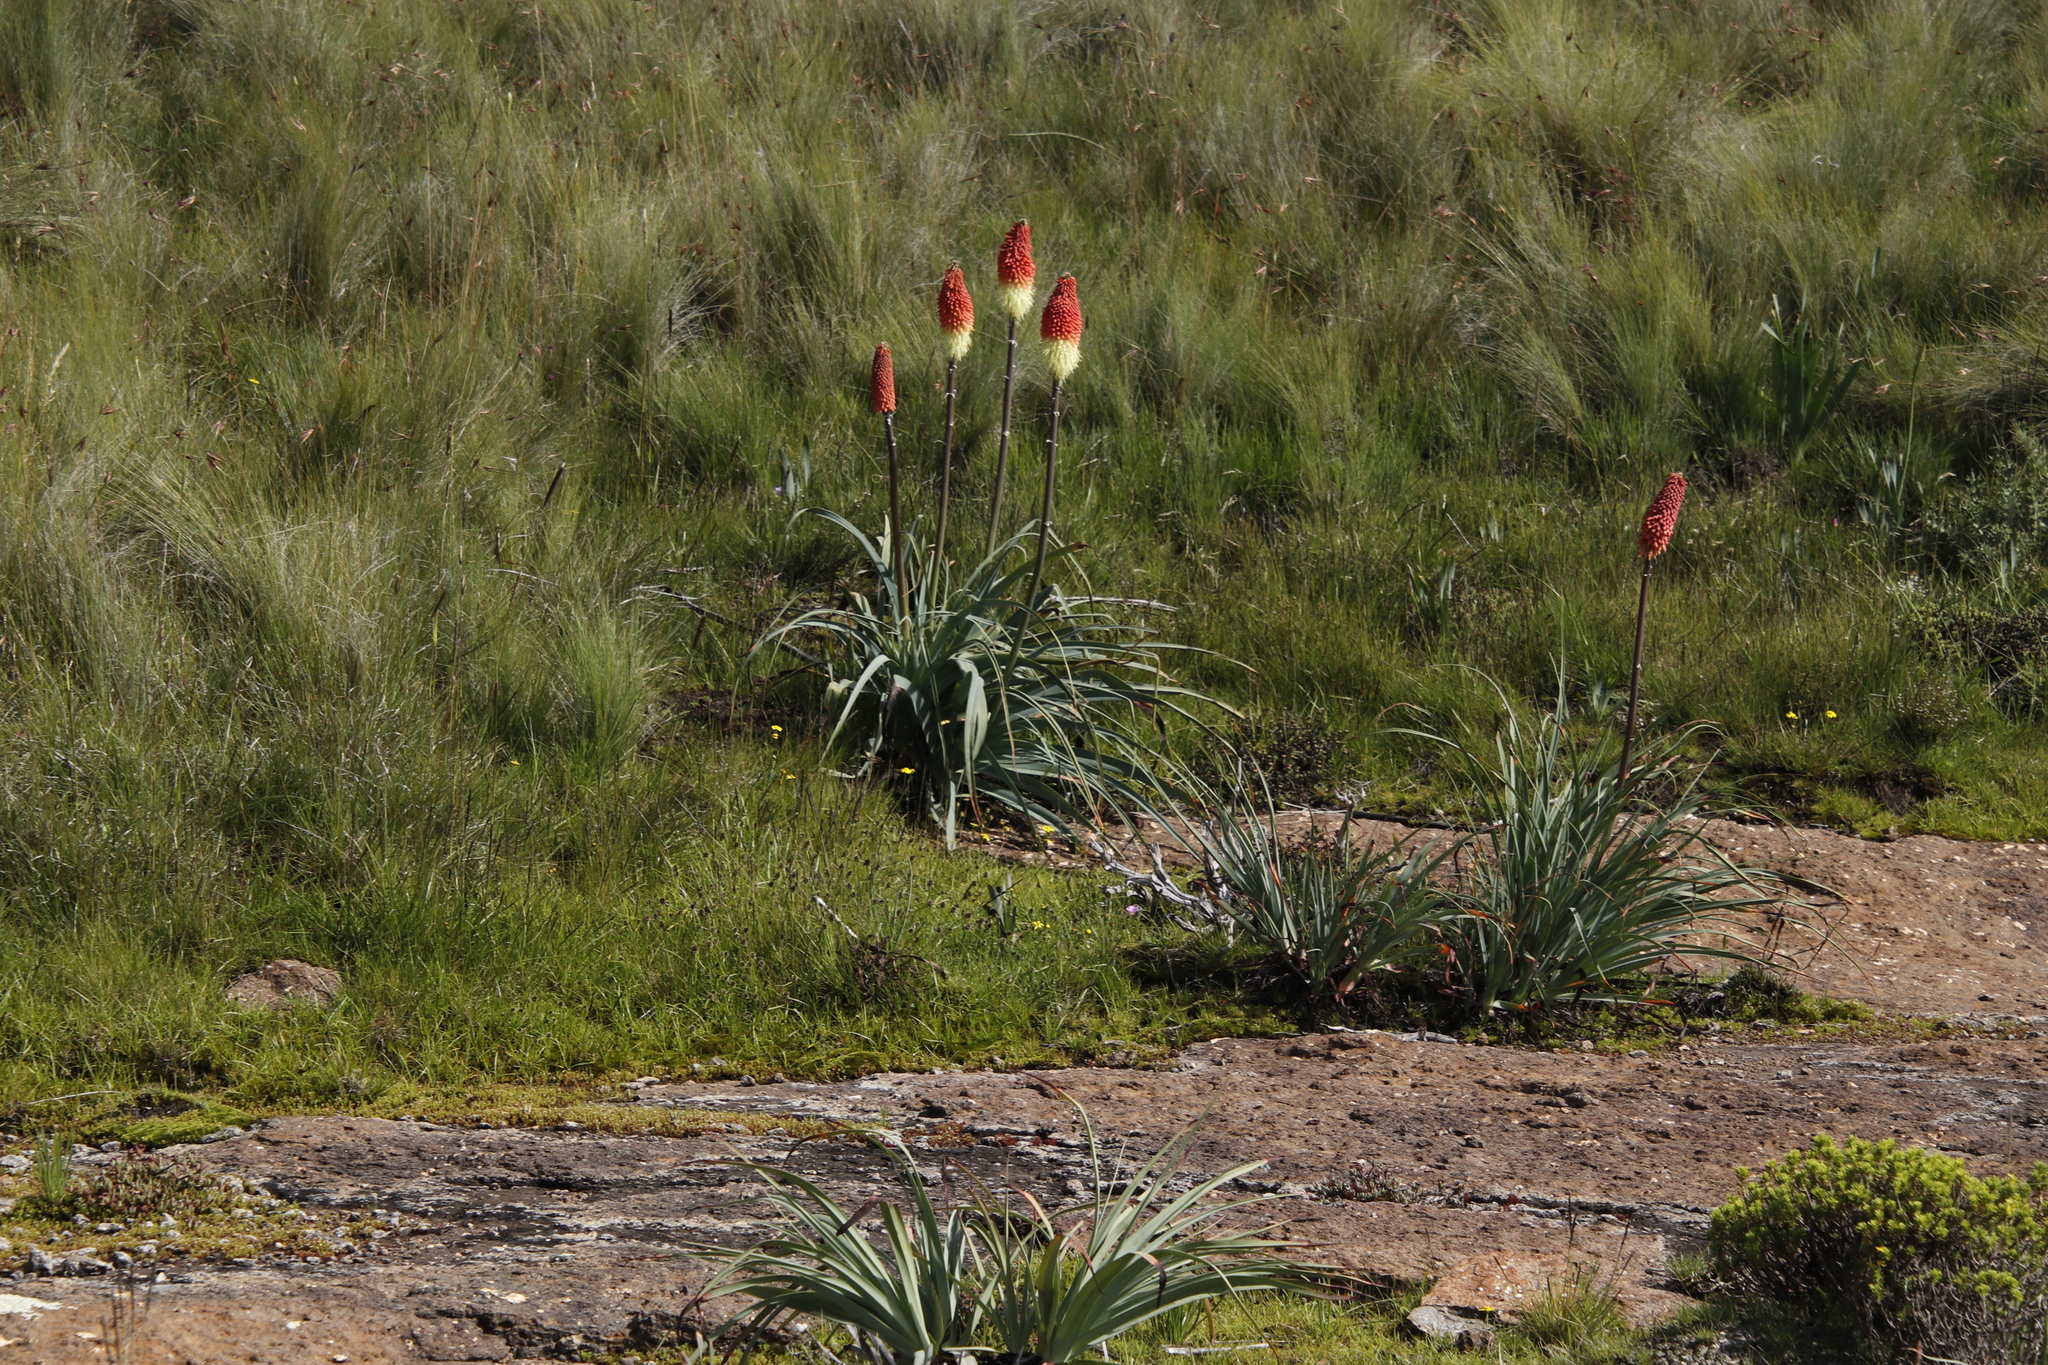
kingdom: Plantae
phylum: Tracheophyta
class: Liliopsida
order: Asparagales
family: Asphodelaceae
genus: Kniphofia
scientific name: Kniphofia caulescens
